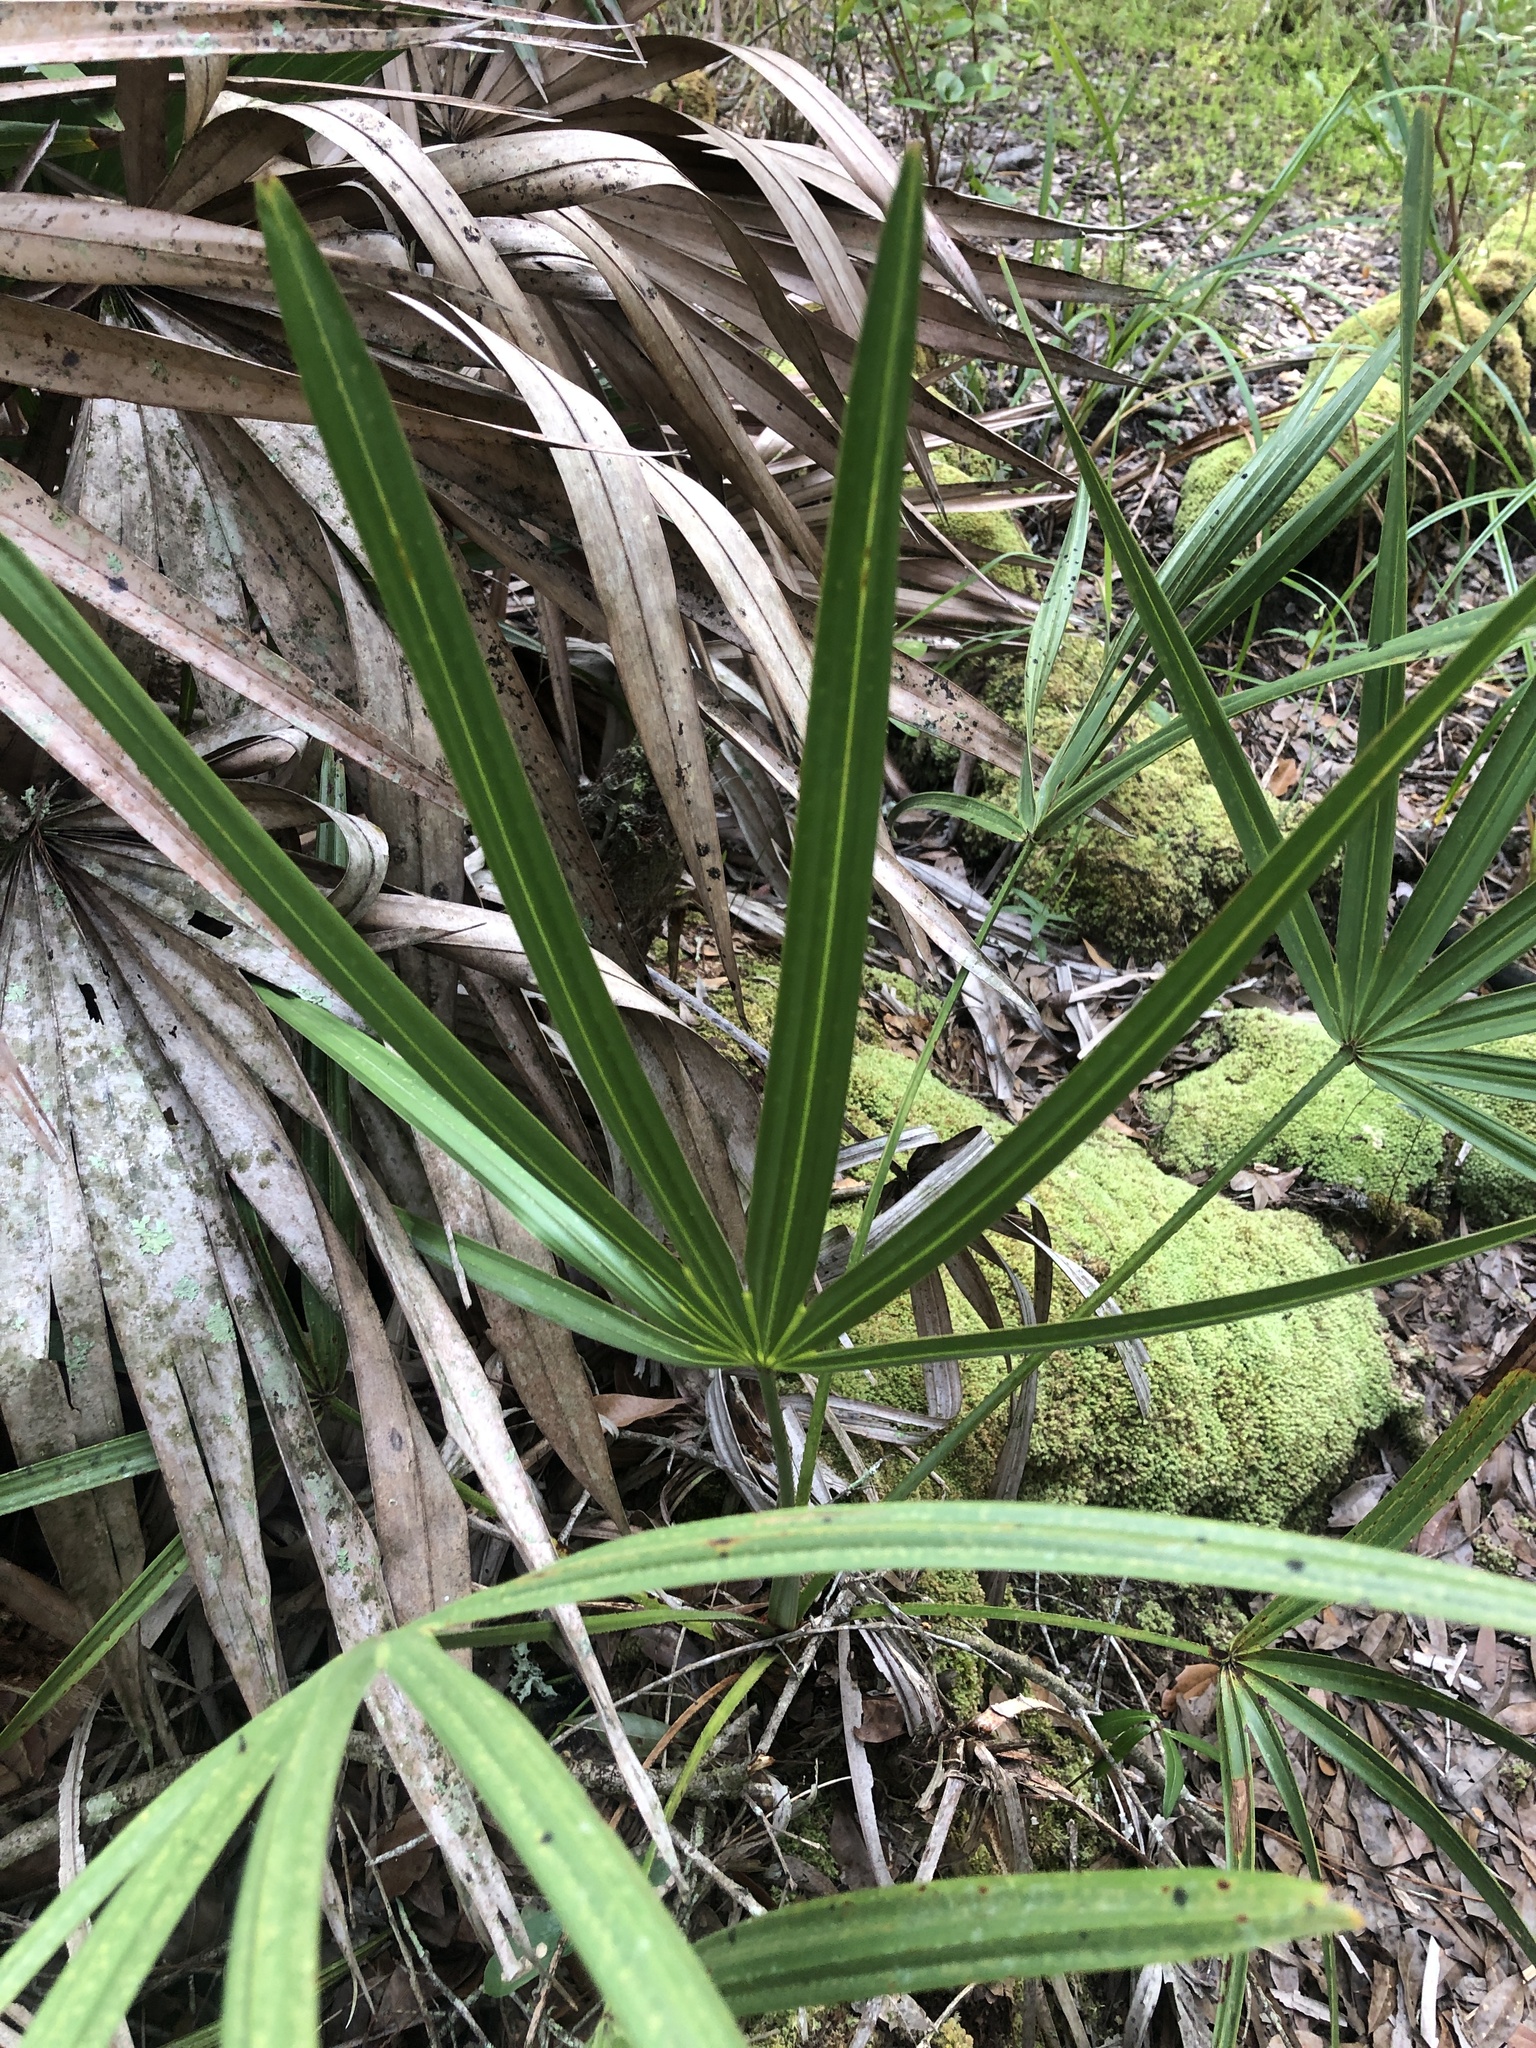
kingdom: Plantae
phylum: Tracheophyta
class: Liliopsida
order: Arecales
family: Arecaceae
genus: Serenoa
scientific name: Serenoa repens
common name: Saw-palmetto
